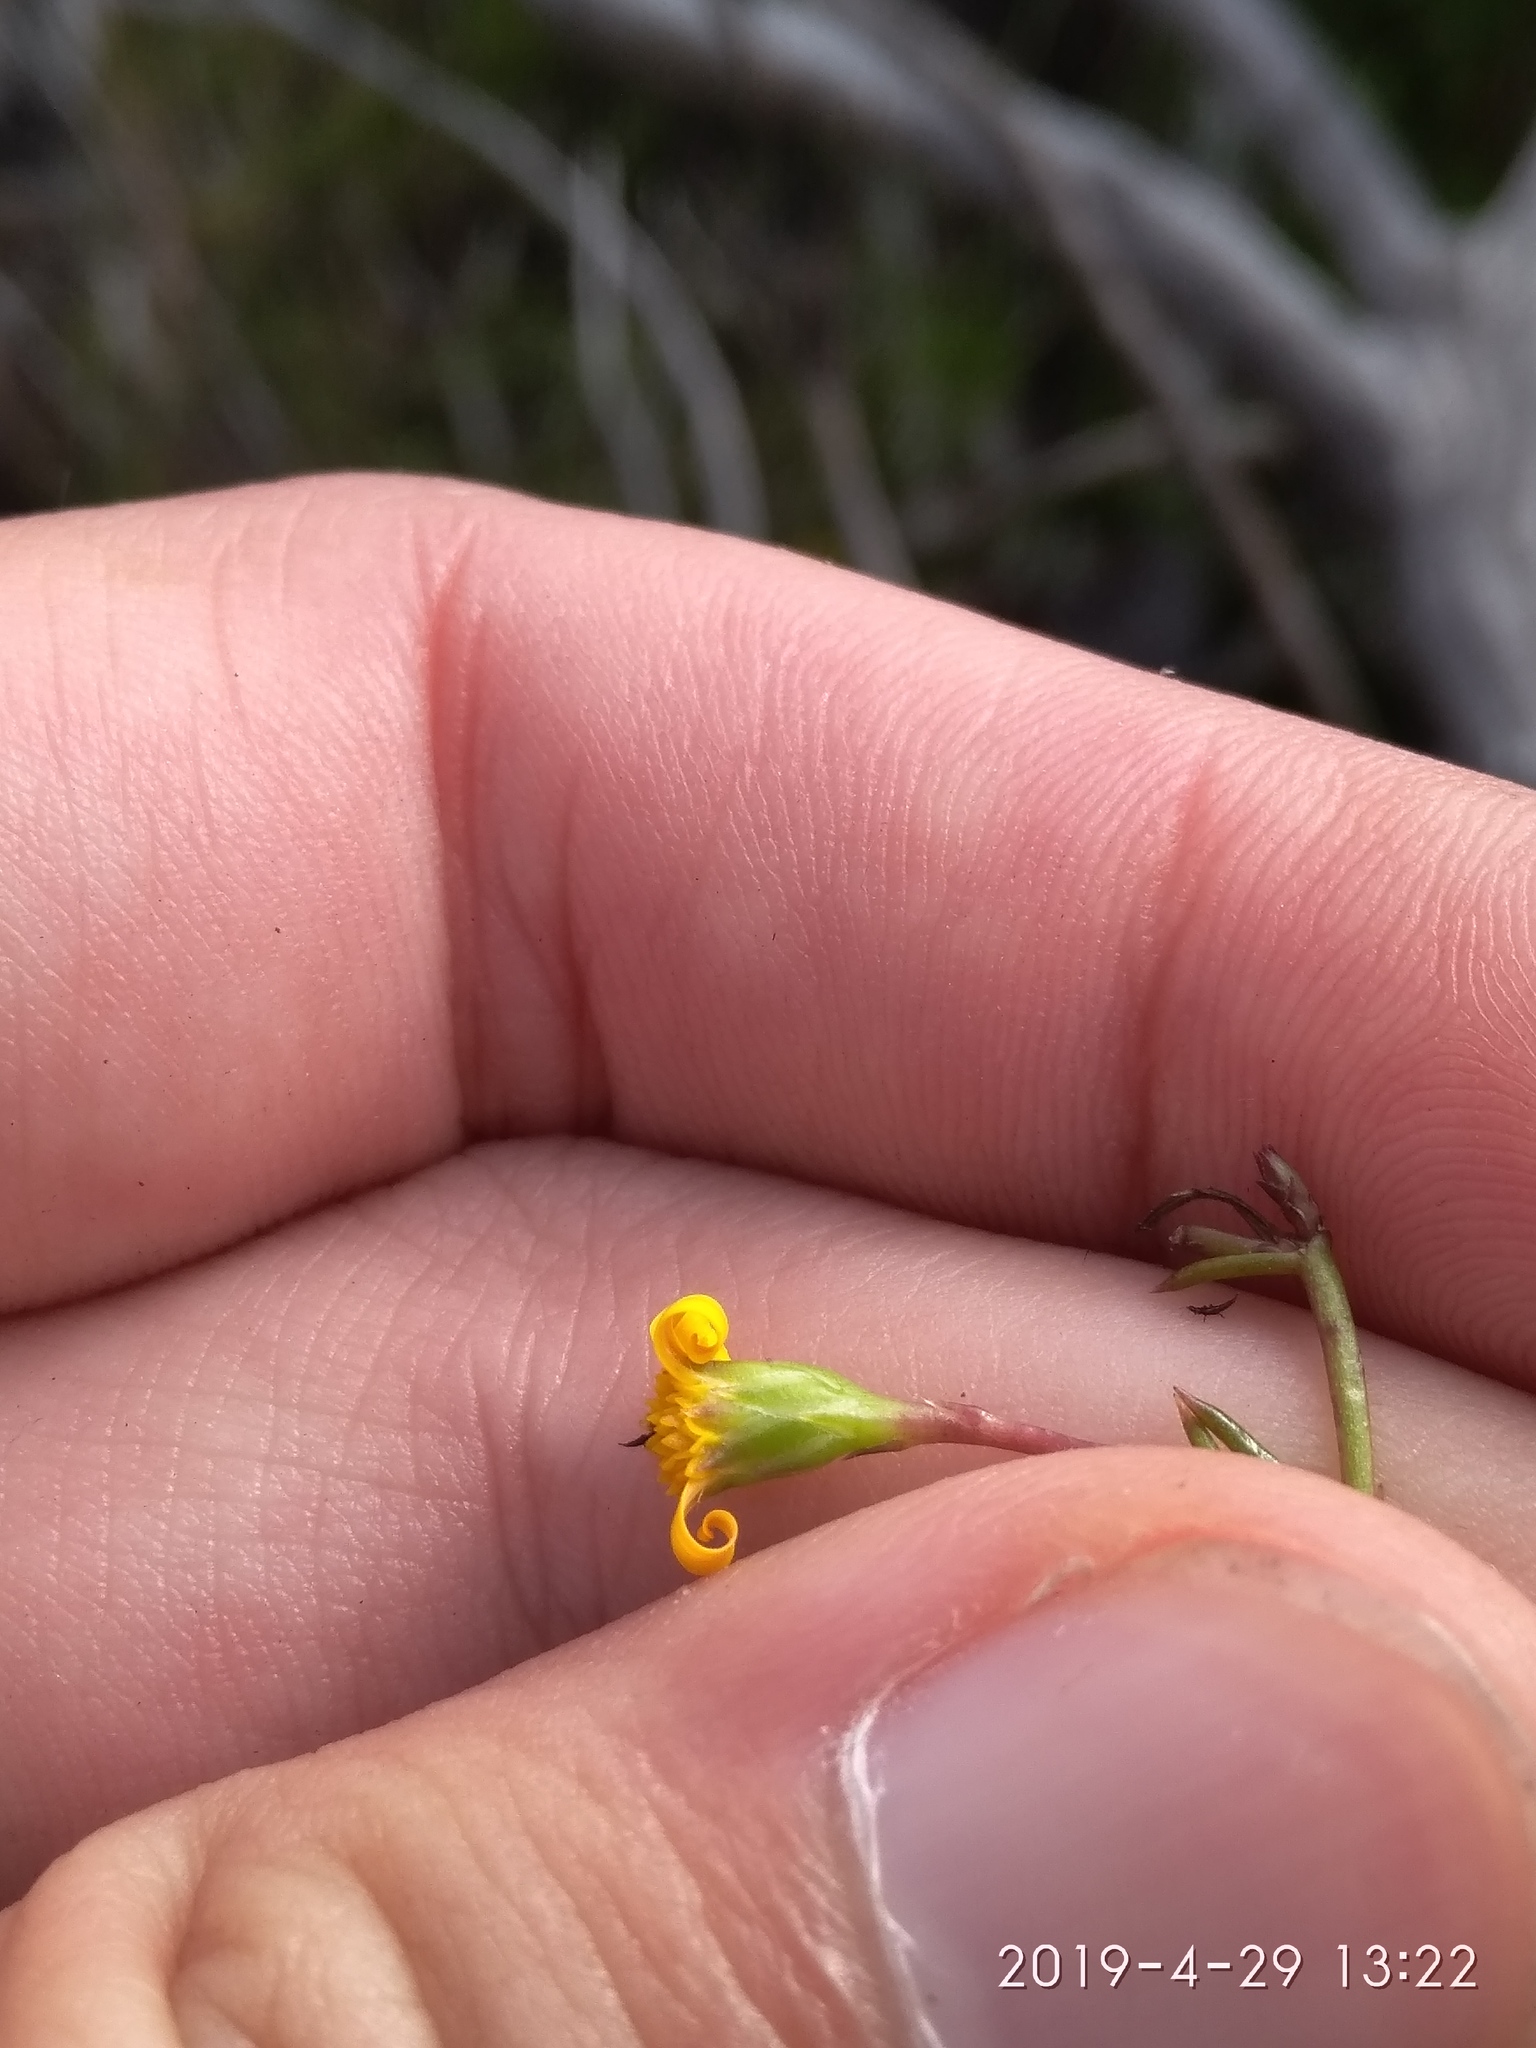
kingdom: Plantae
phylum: Tracheophyta
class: Magnoliopsida
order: Asterales
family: Asteraceae
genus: Osteospermum
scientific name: Osteospermum ciliatum
